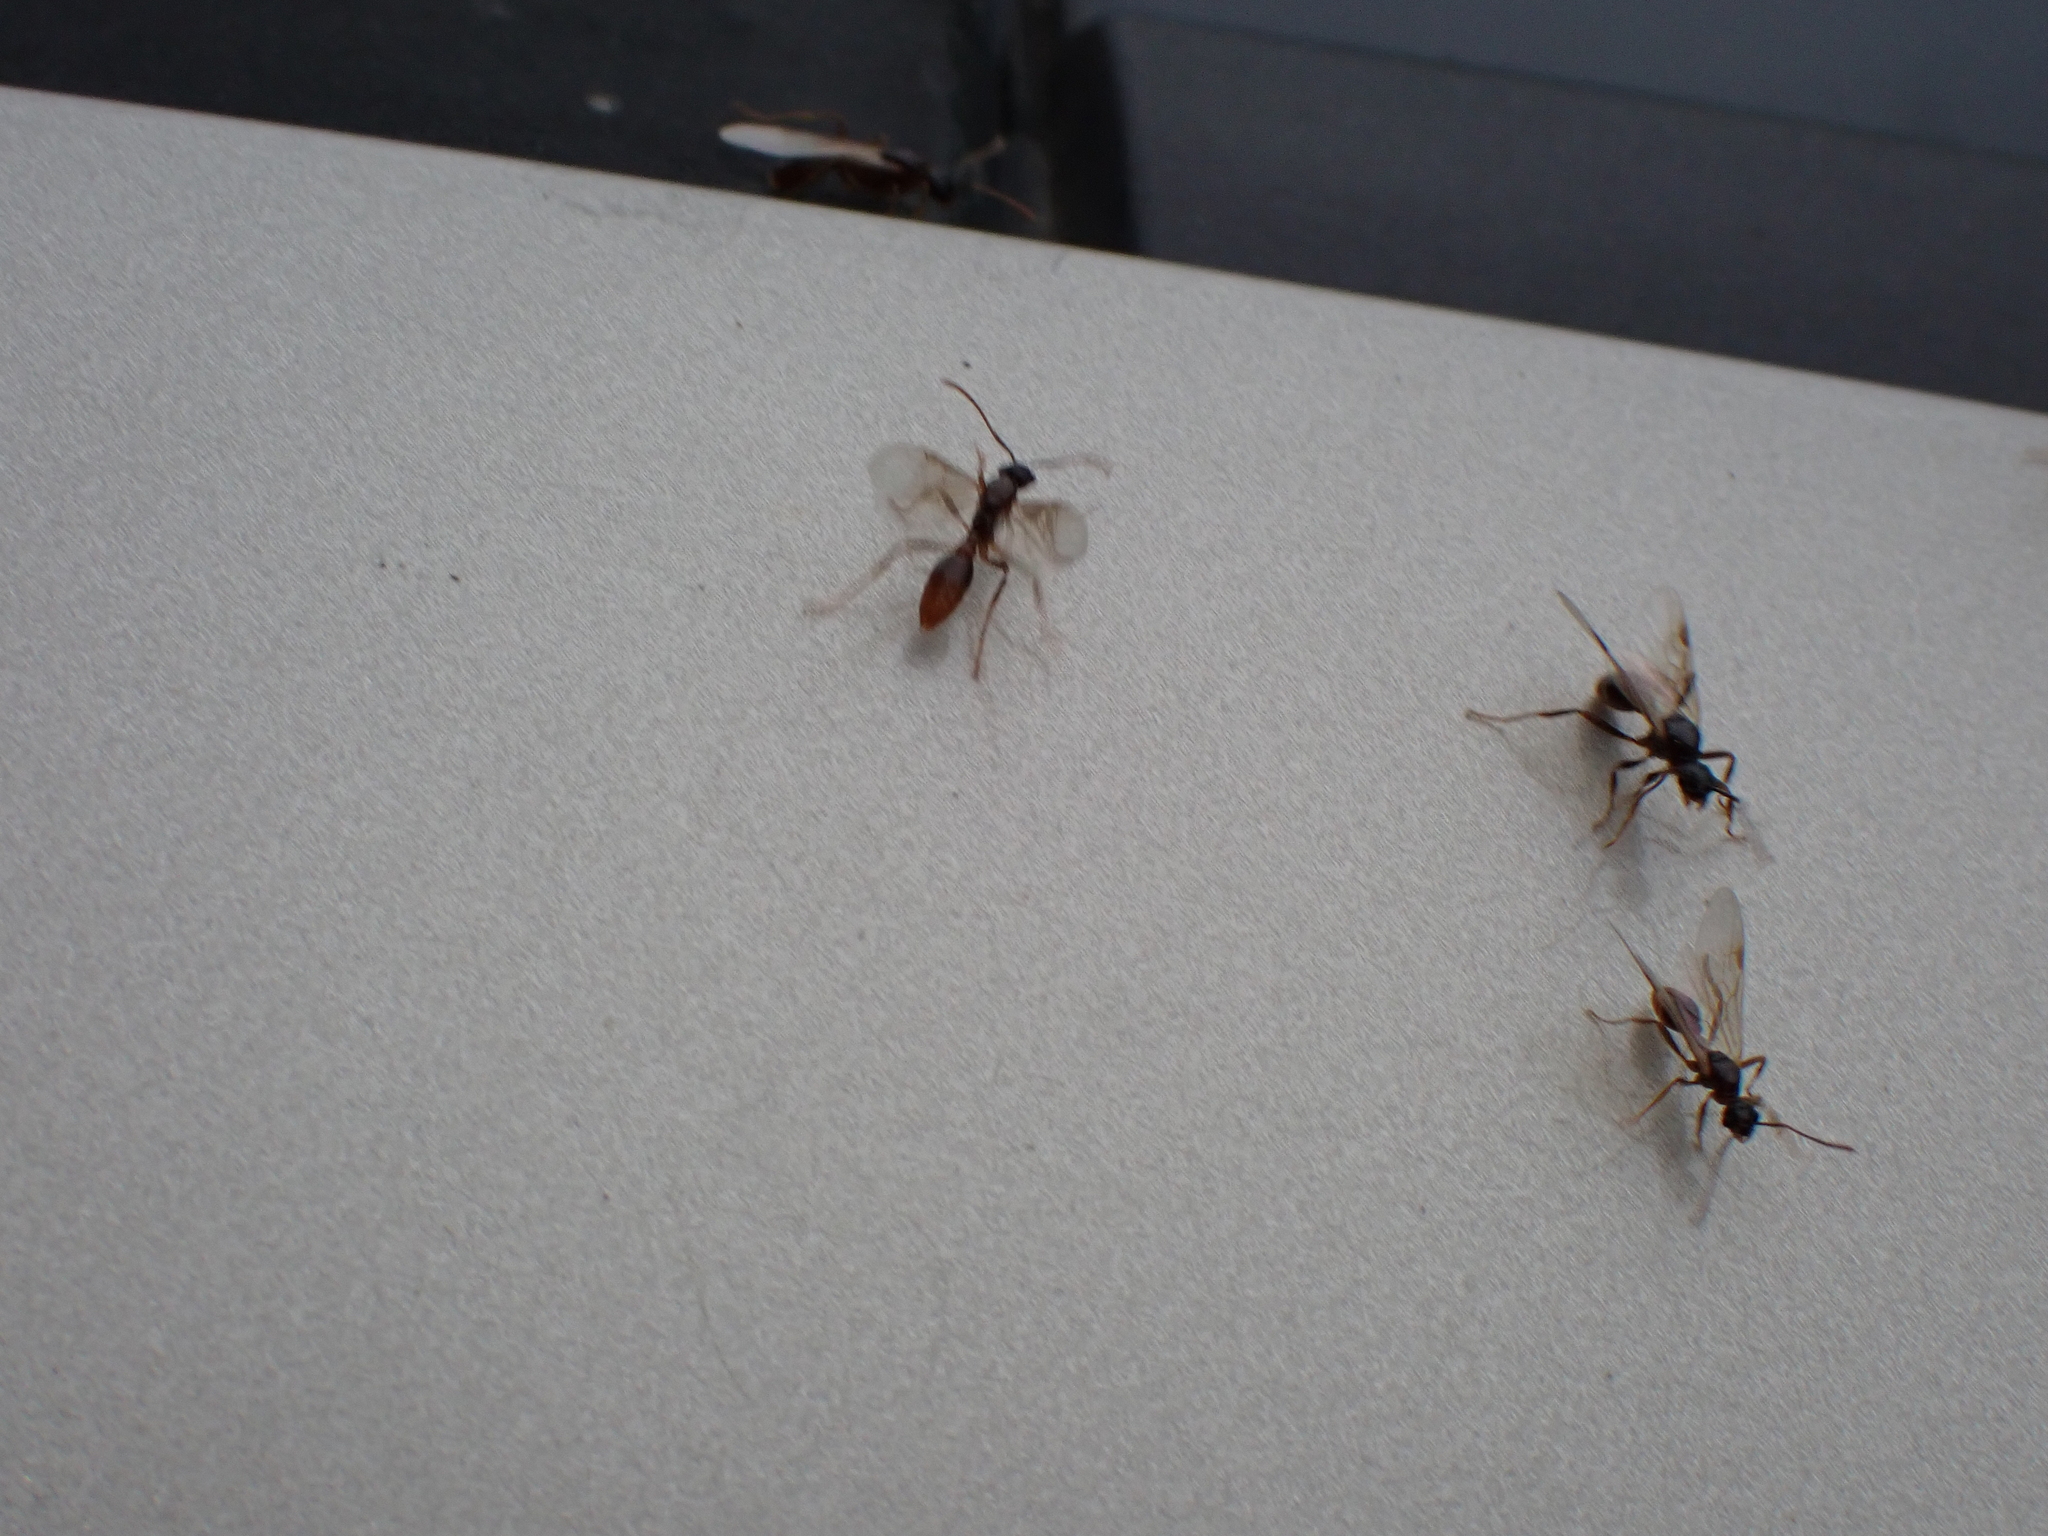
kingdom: Animalia
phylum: Arthropoda
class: Insecta
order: Hymenoptera
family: Formicidae
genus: Myrmica
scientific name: Myrmica
